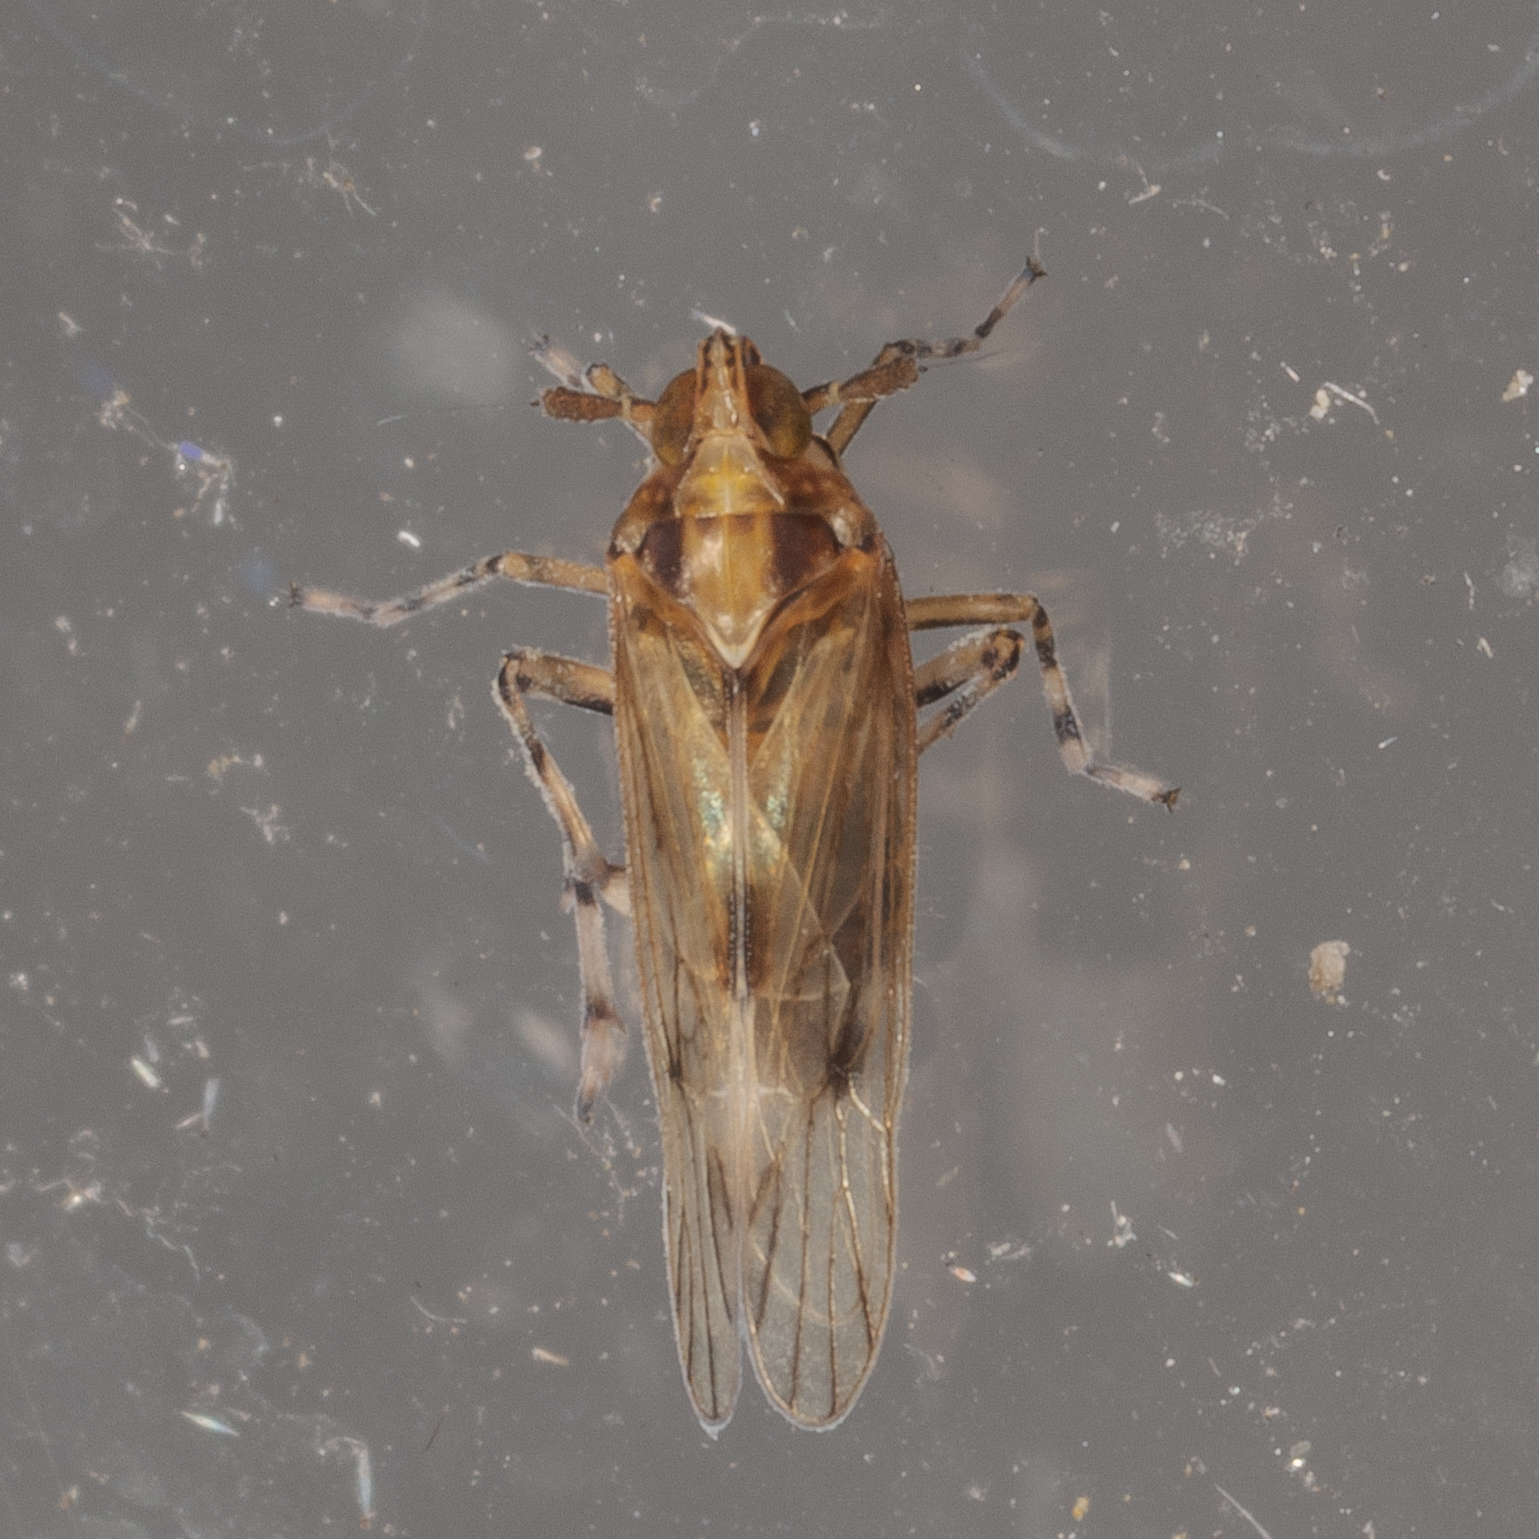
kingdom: Animalia
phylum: Arthropoda
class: Insecta
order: Hemiptera
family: Delphacidae
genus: Megamelus
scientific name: Megamelus palaetus
